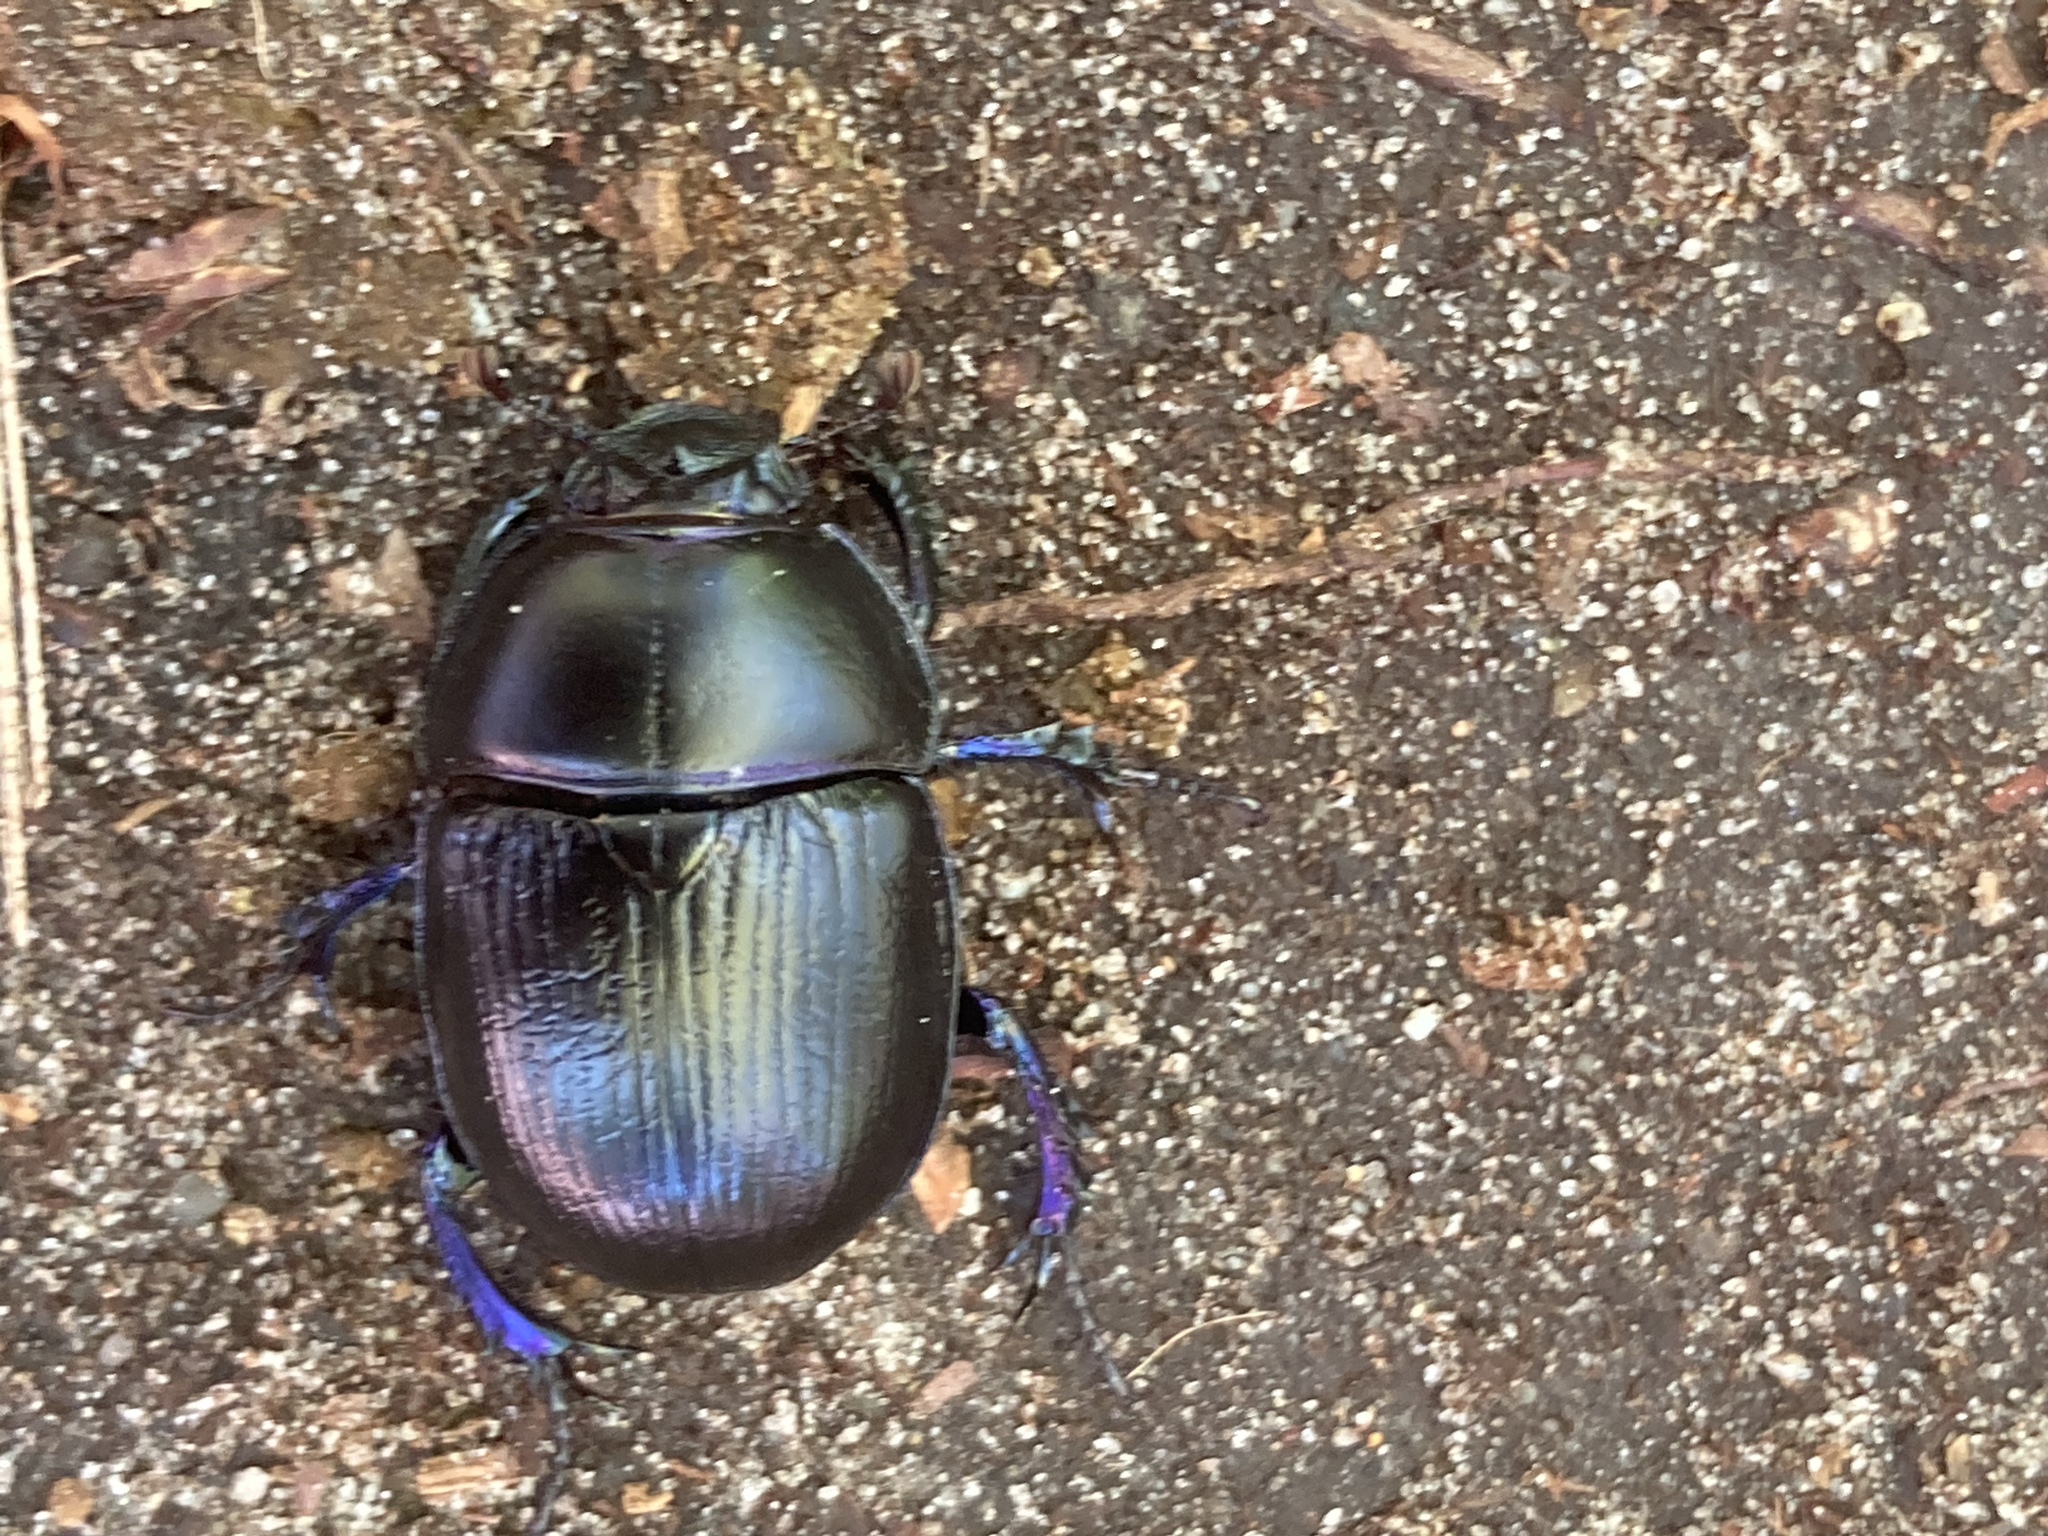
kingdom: Animalia
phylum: Arthropoda
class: Insecta
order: Coleoptera
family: Geotrupidae
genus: Anoplotrupes
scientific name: Anoplotrupes stercorosus
